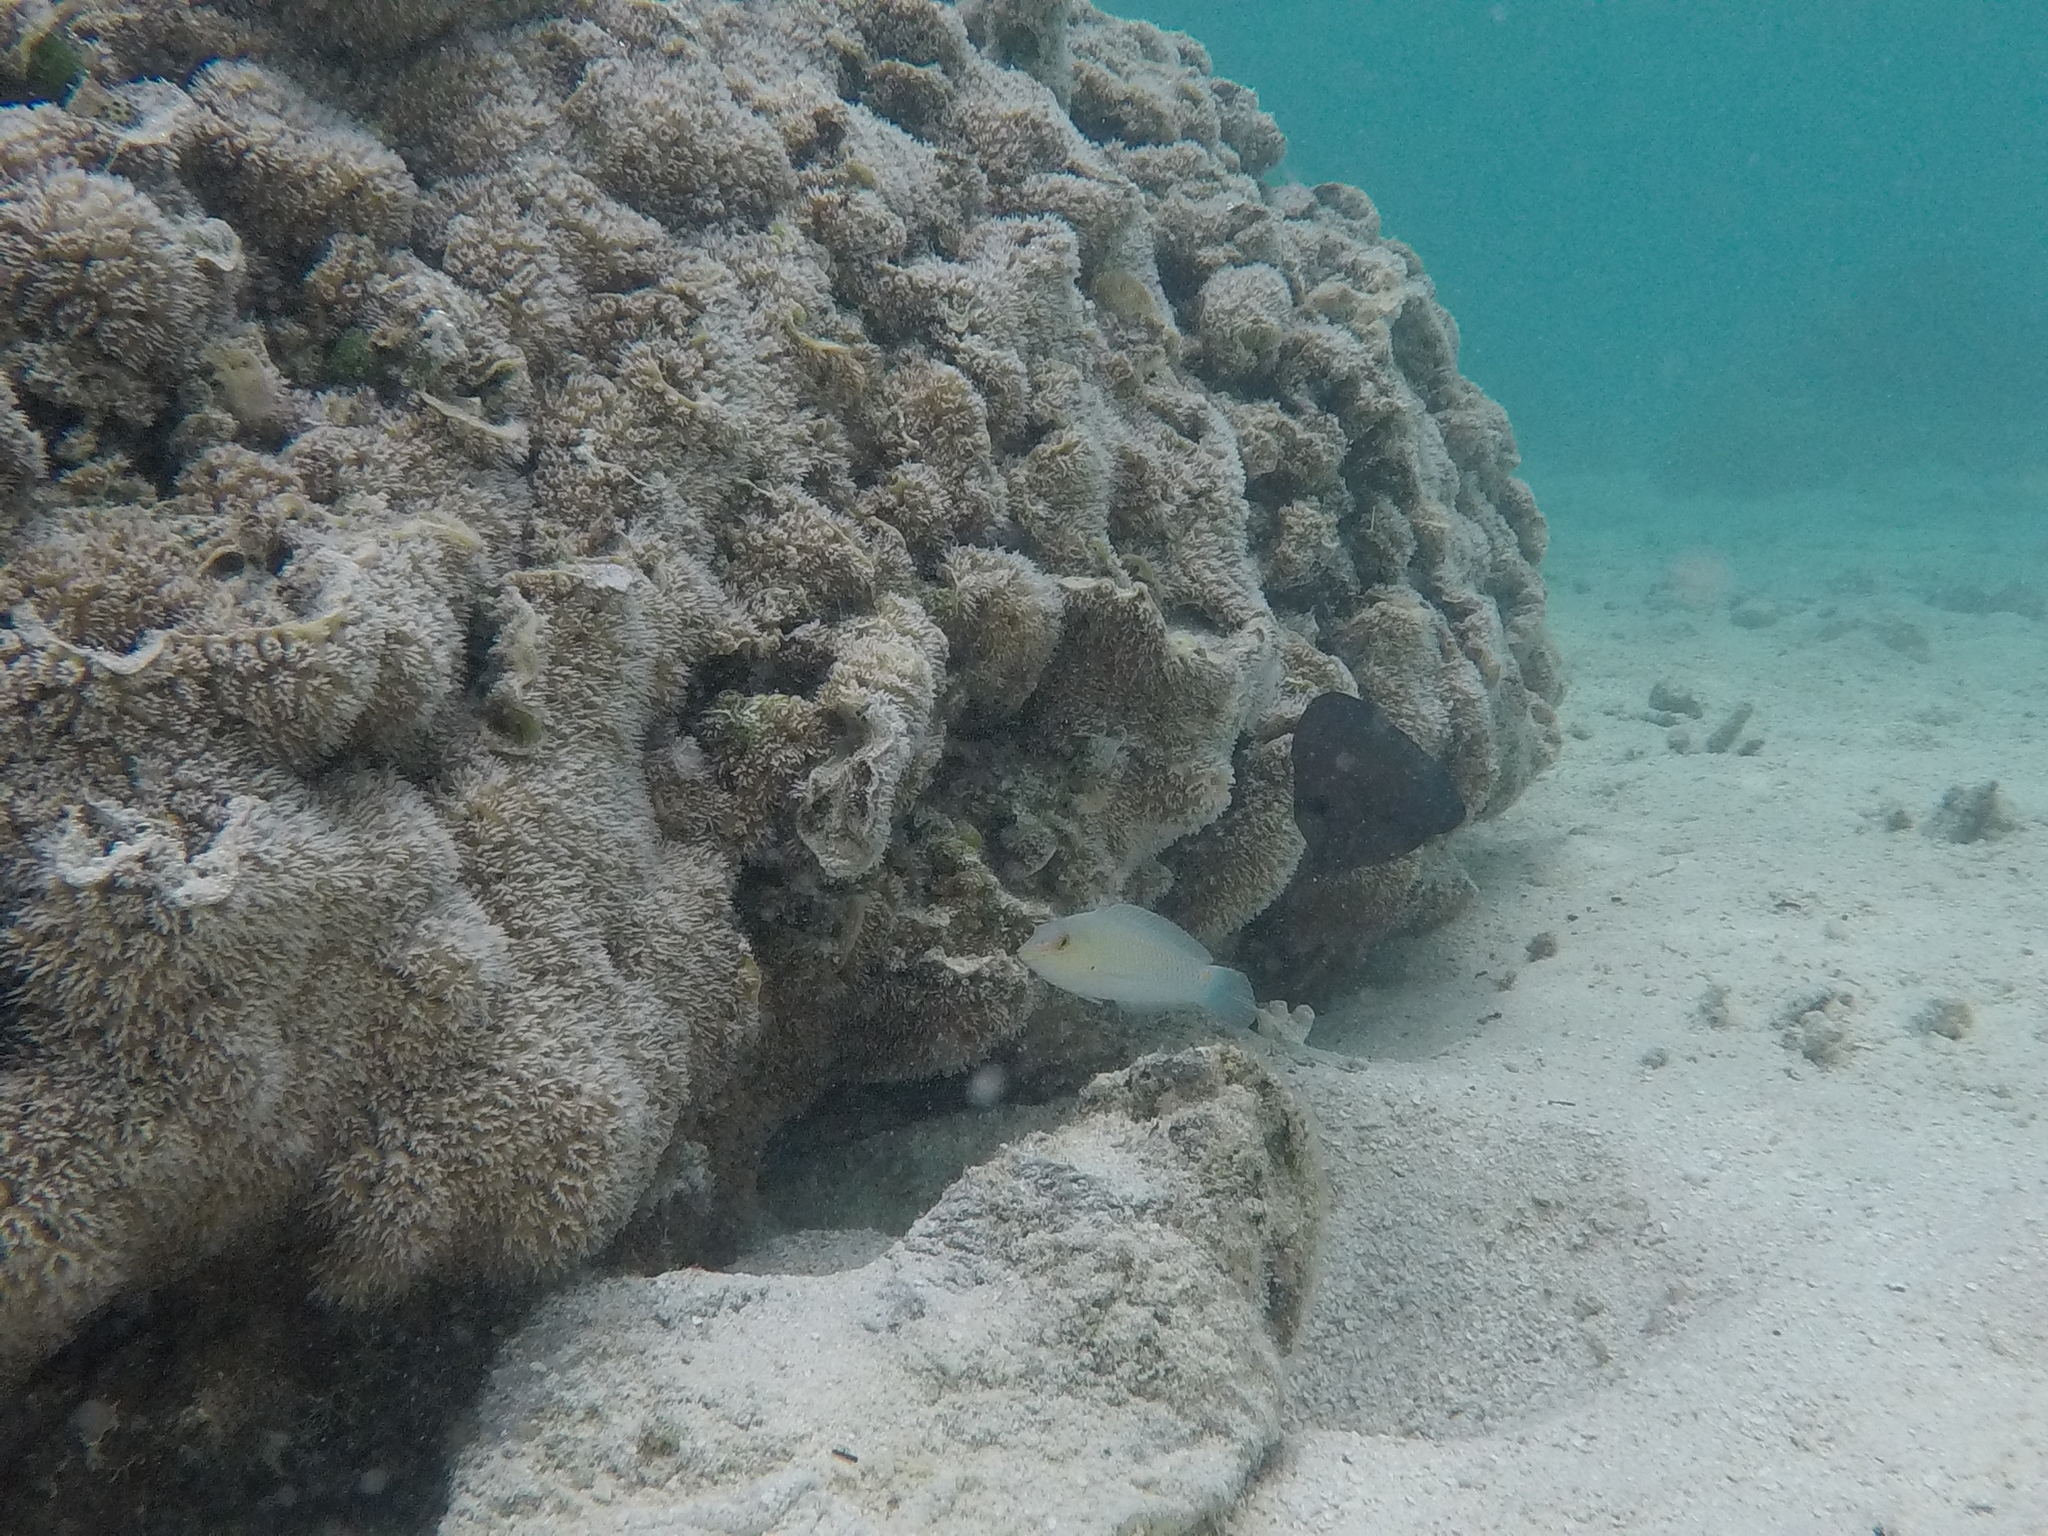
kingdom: Animalia
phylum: Chordata
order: Perciformes
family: Labridae
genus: Halichoeres
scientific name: Halichoeres trimaculatus
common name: Three-spot wrasse
